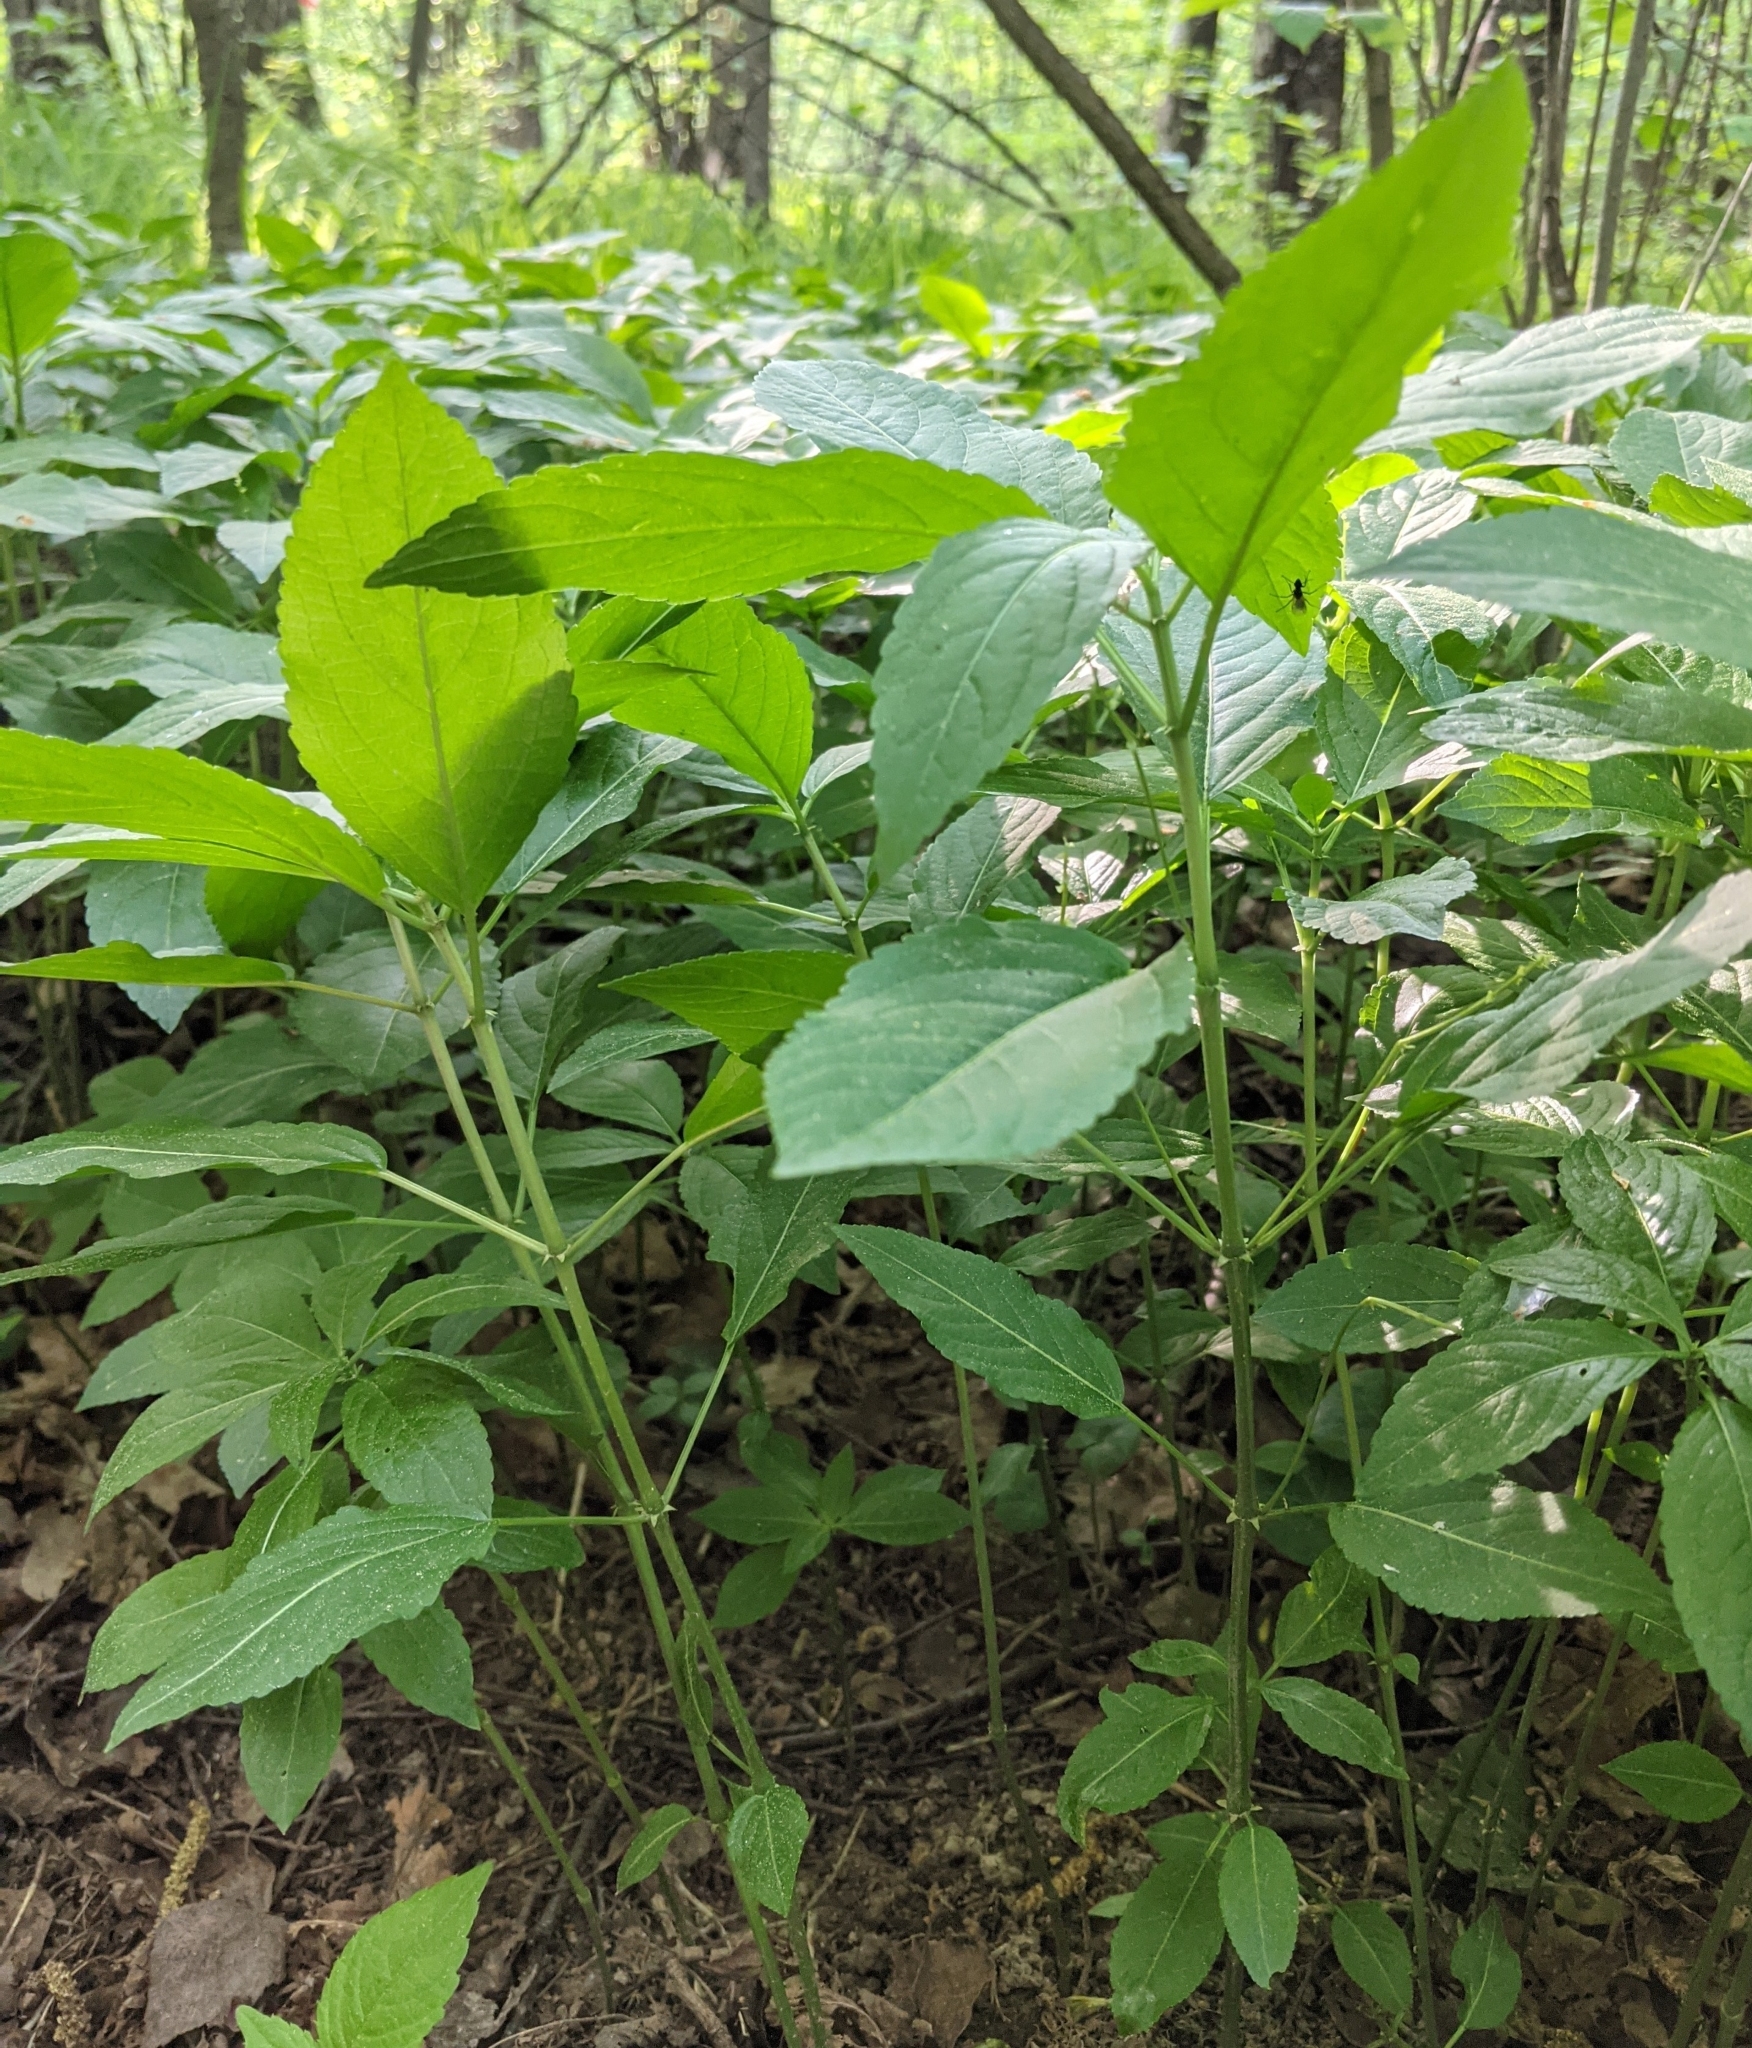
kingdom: Plantae
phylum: Tracheophyta
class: Magnoliopsida
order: Malpighiales
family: Euphorbiaceae
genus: Mercurialis
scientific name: Mercurialis perennis
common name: Dog mercury
